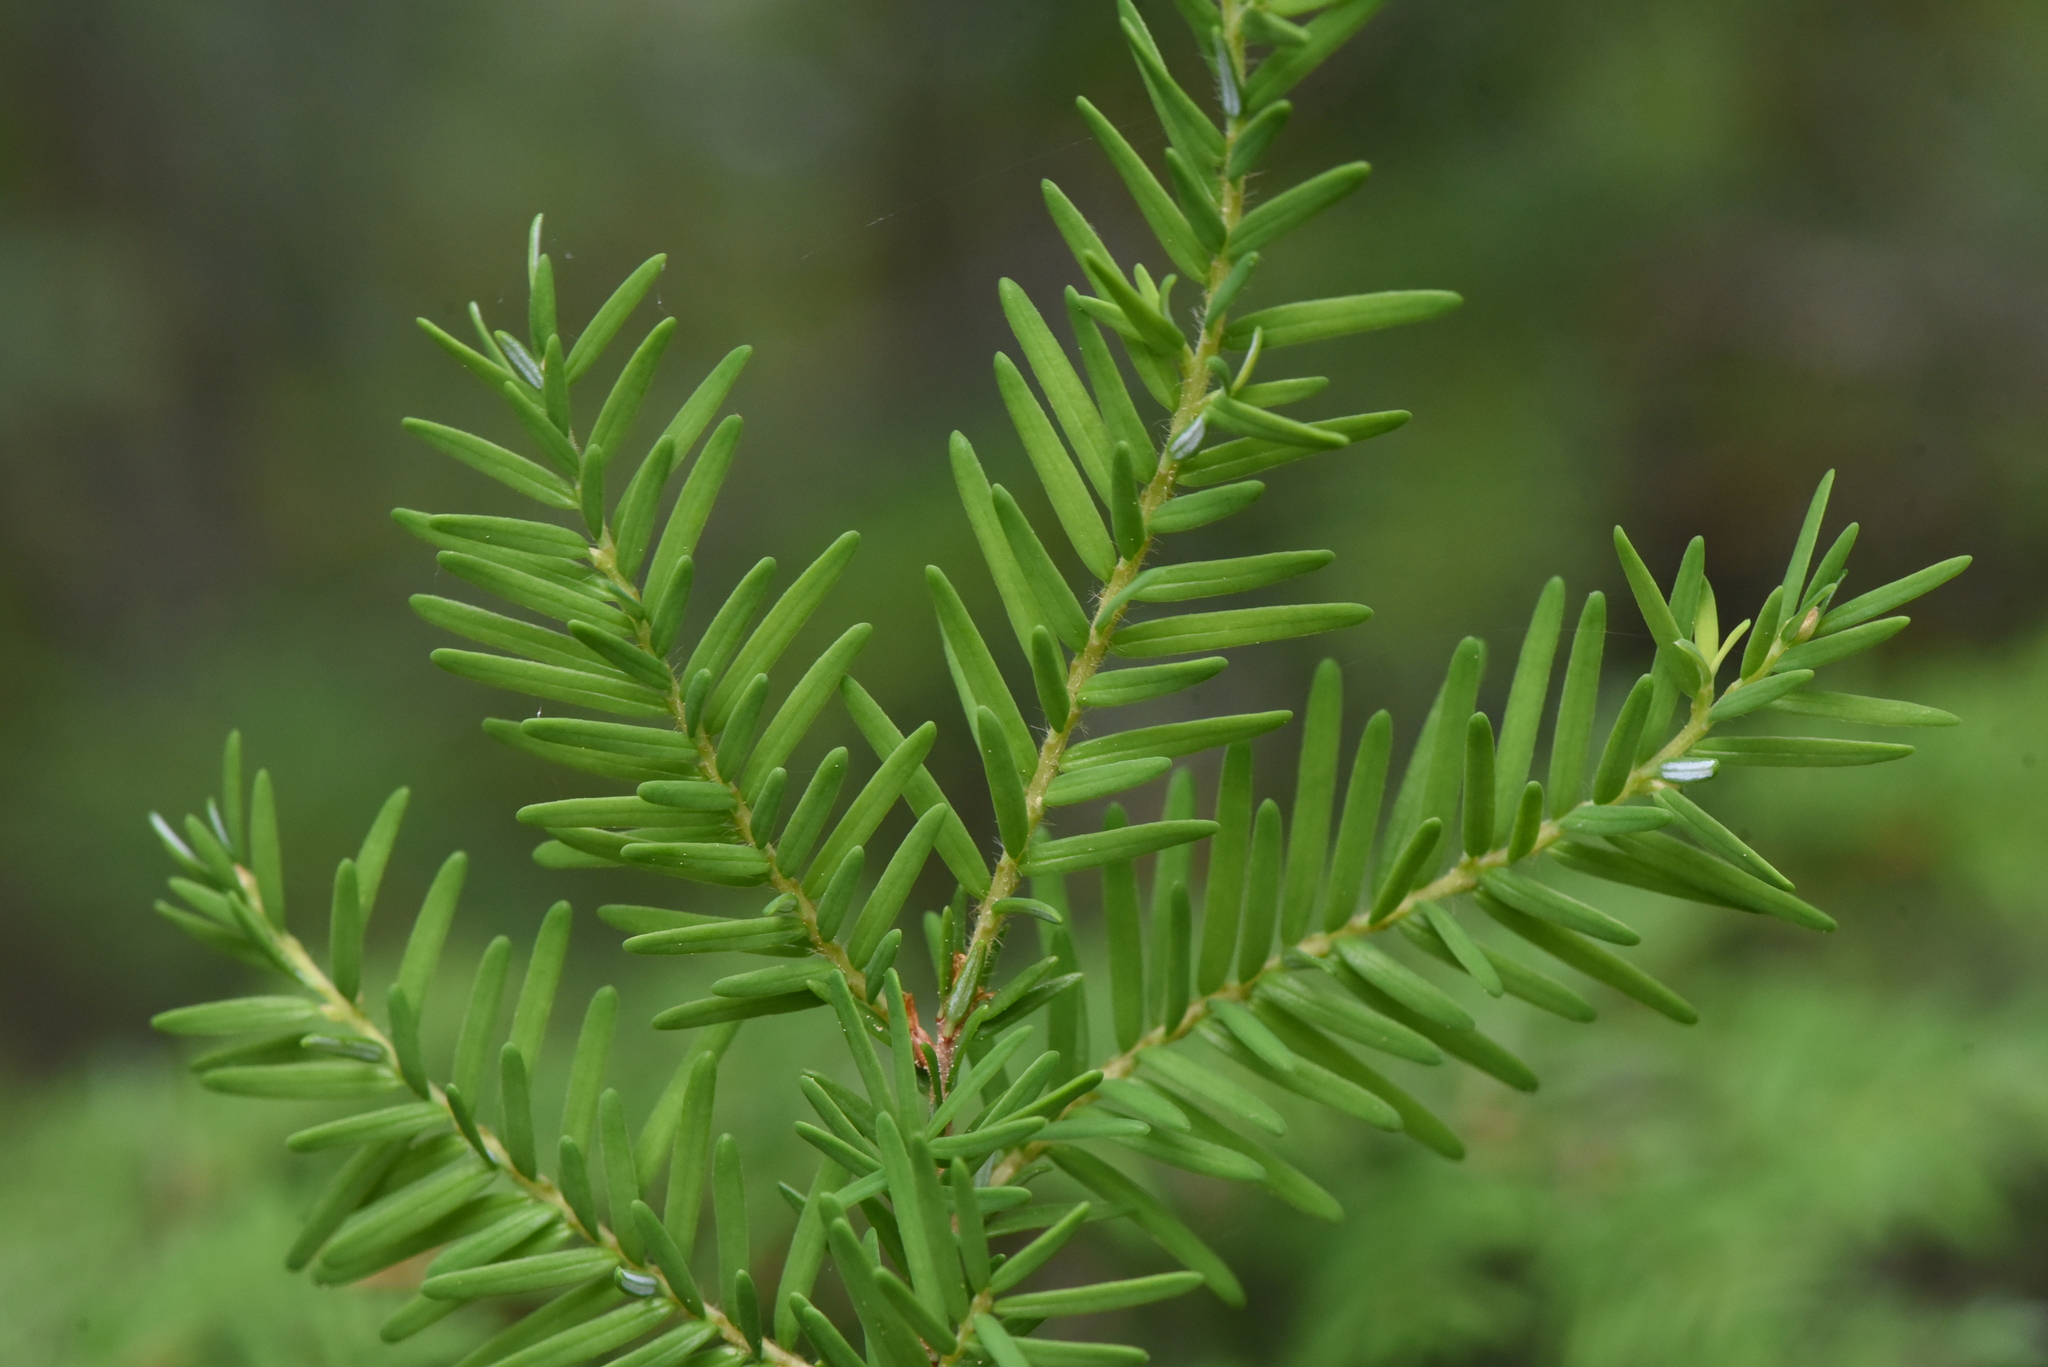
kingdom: Plantae
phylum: Tracheophyta
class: Pinopsida
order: Pinales
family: Pinaceae
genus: Tsuga
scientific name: Tsuga heterophylla
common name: Western hemlock
